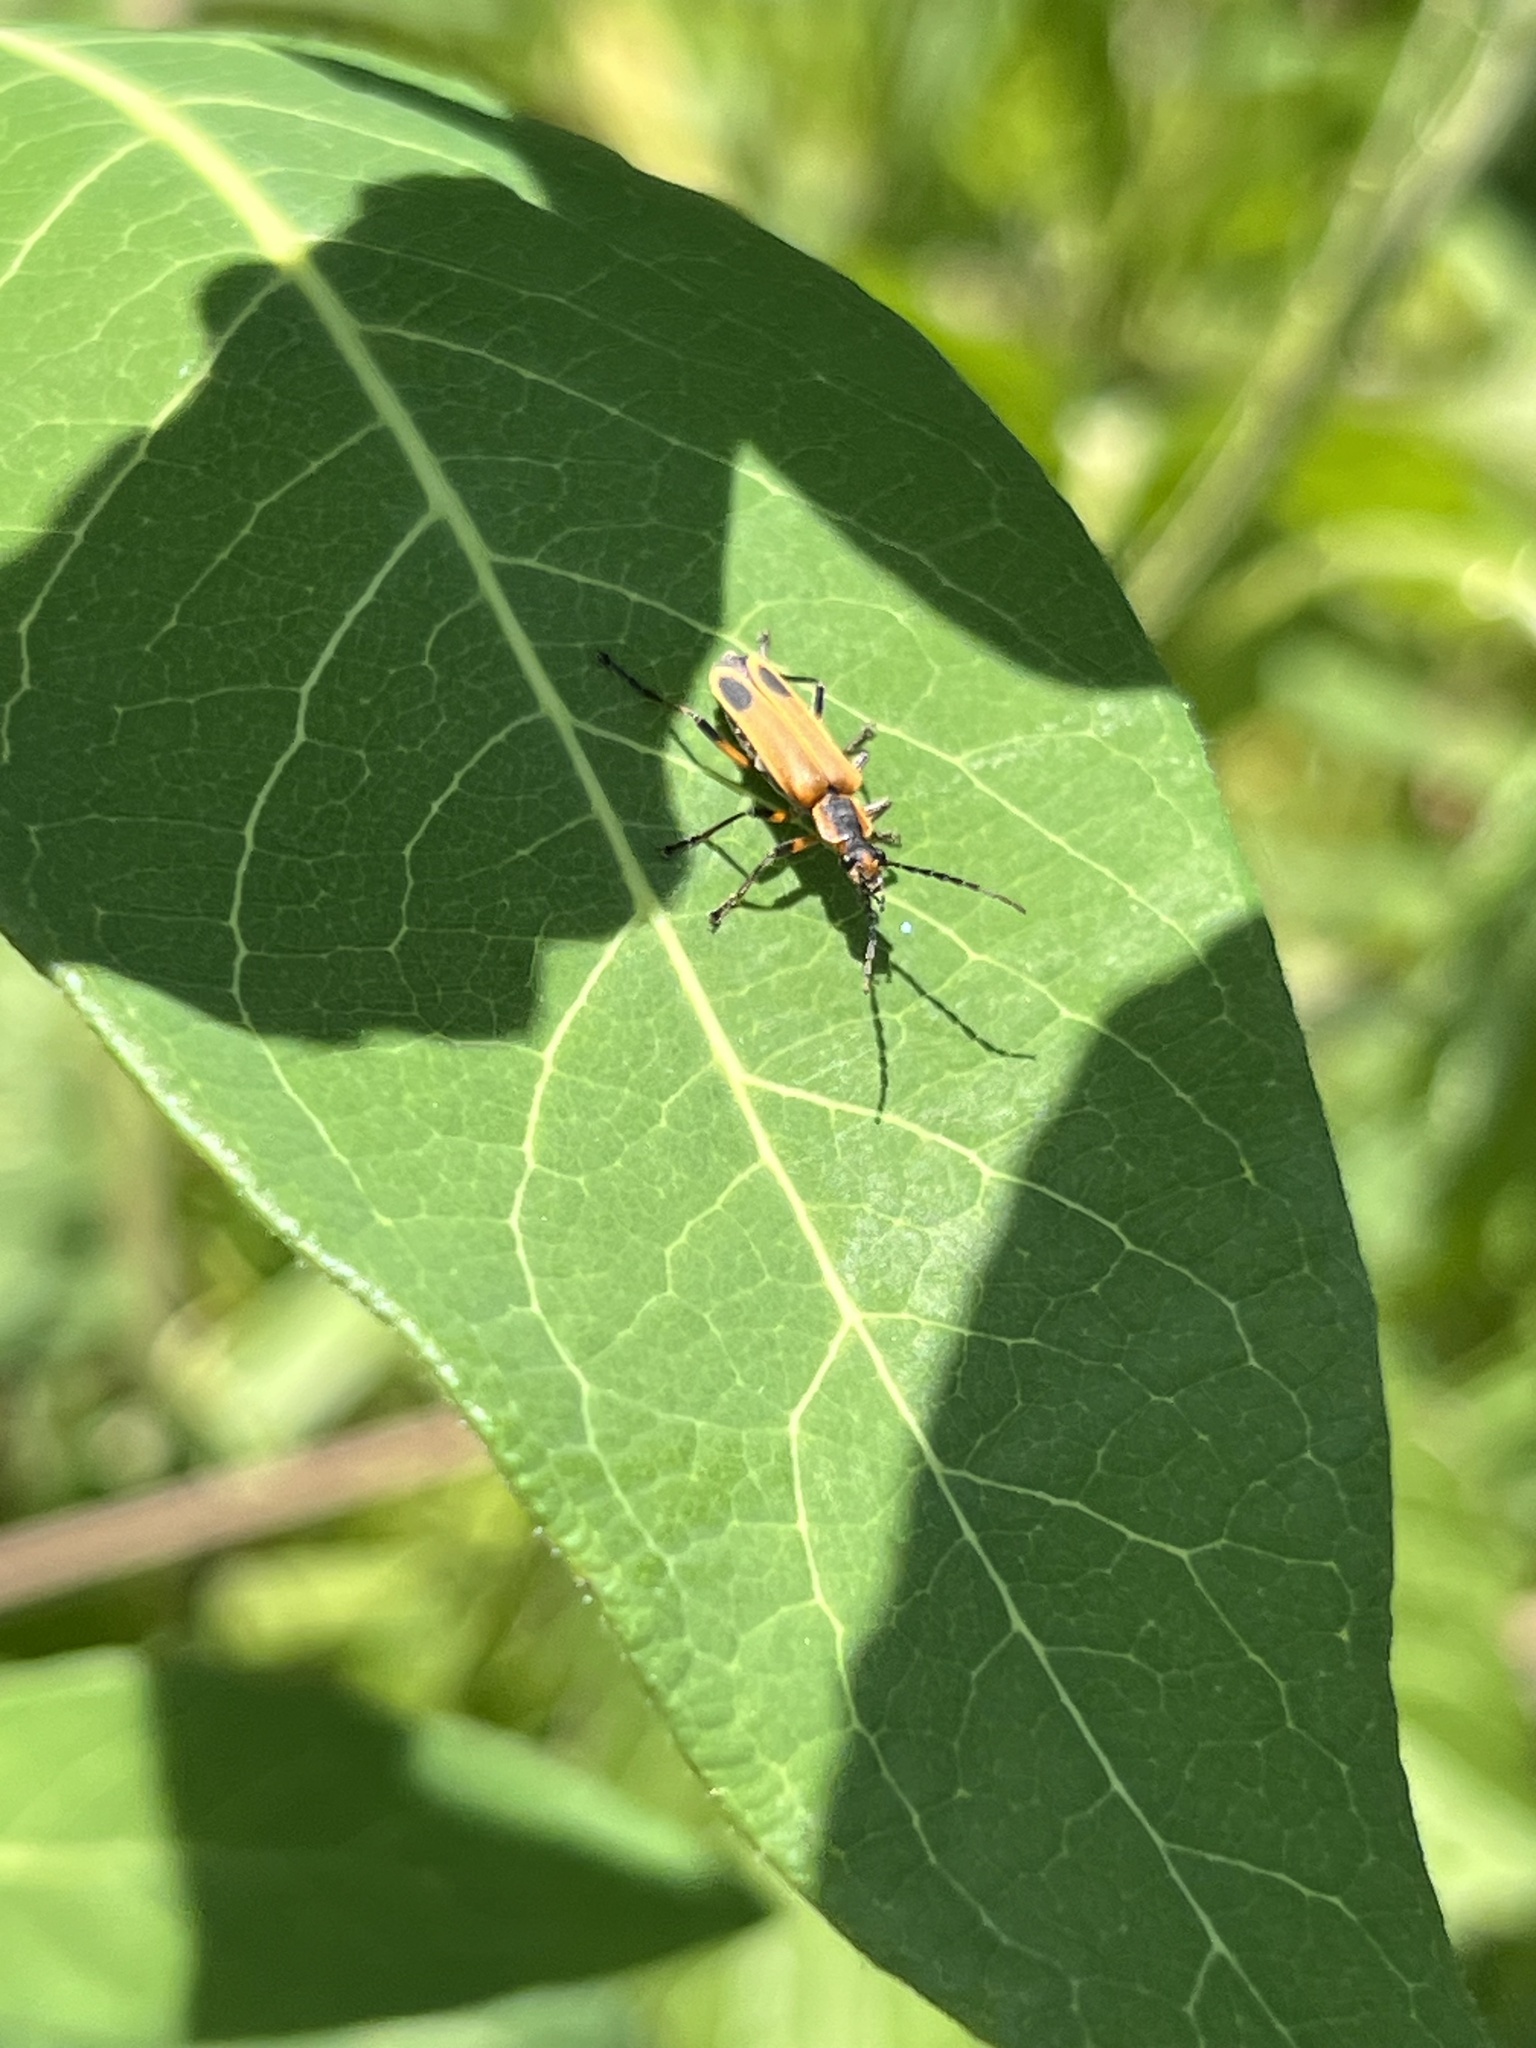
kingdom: Animalia
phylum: Arthropoda
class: Insecta
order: Coleoptera
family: Cantharidae
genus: Chauliognathus
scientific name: Chauliognathus marginatus
